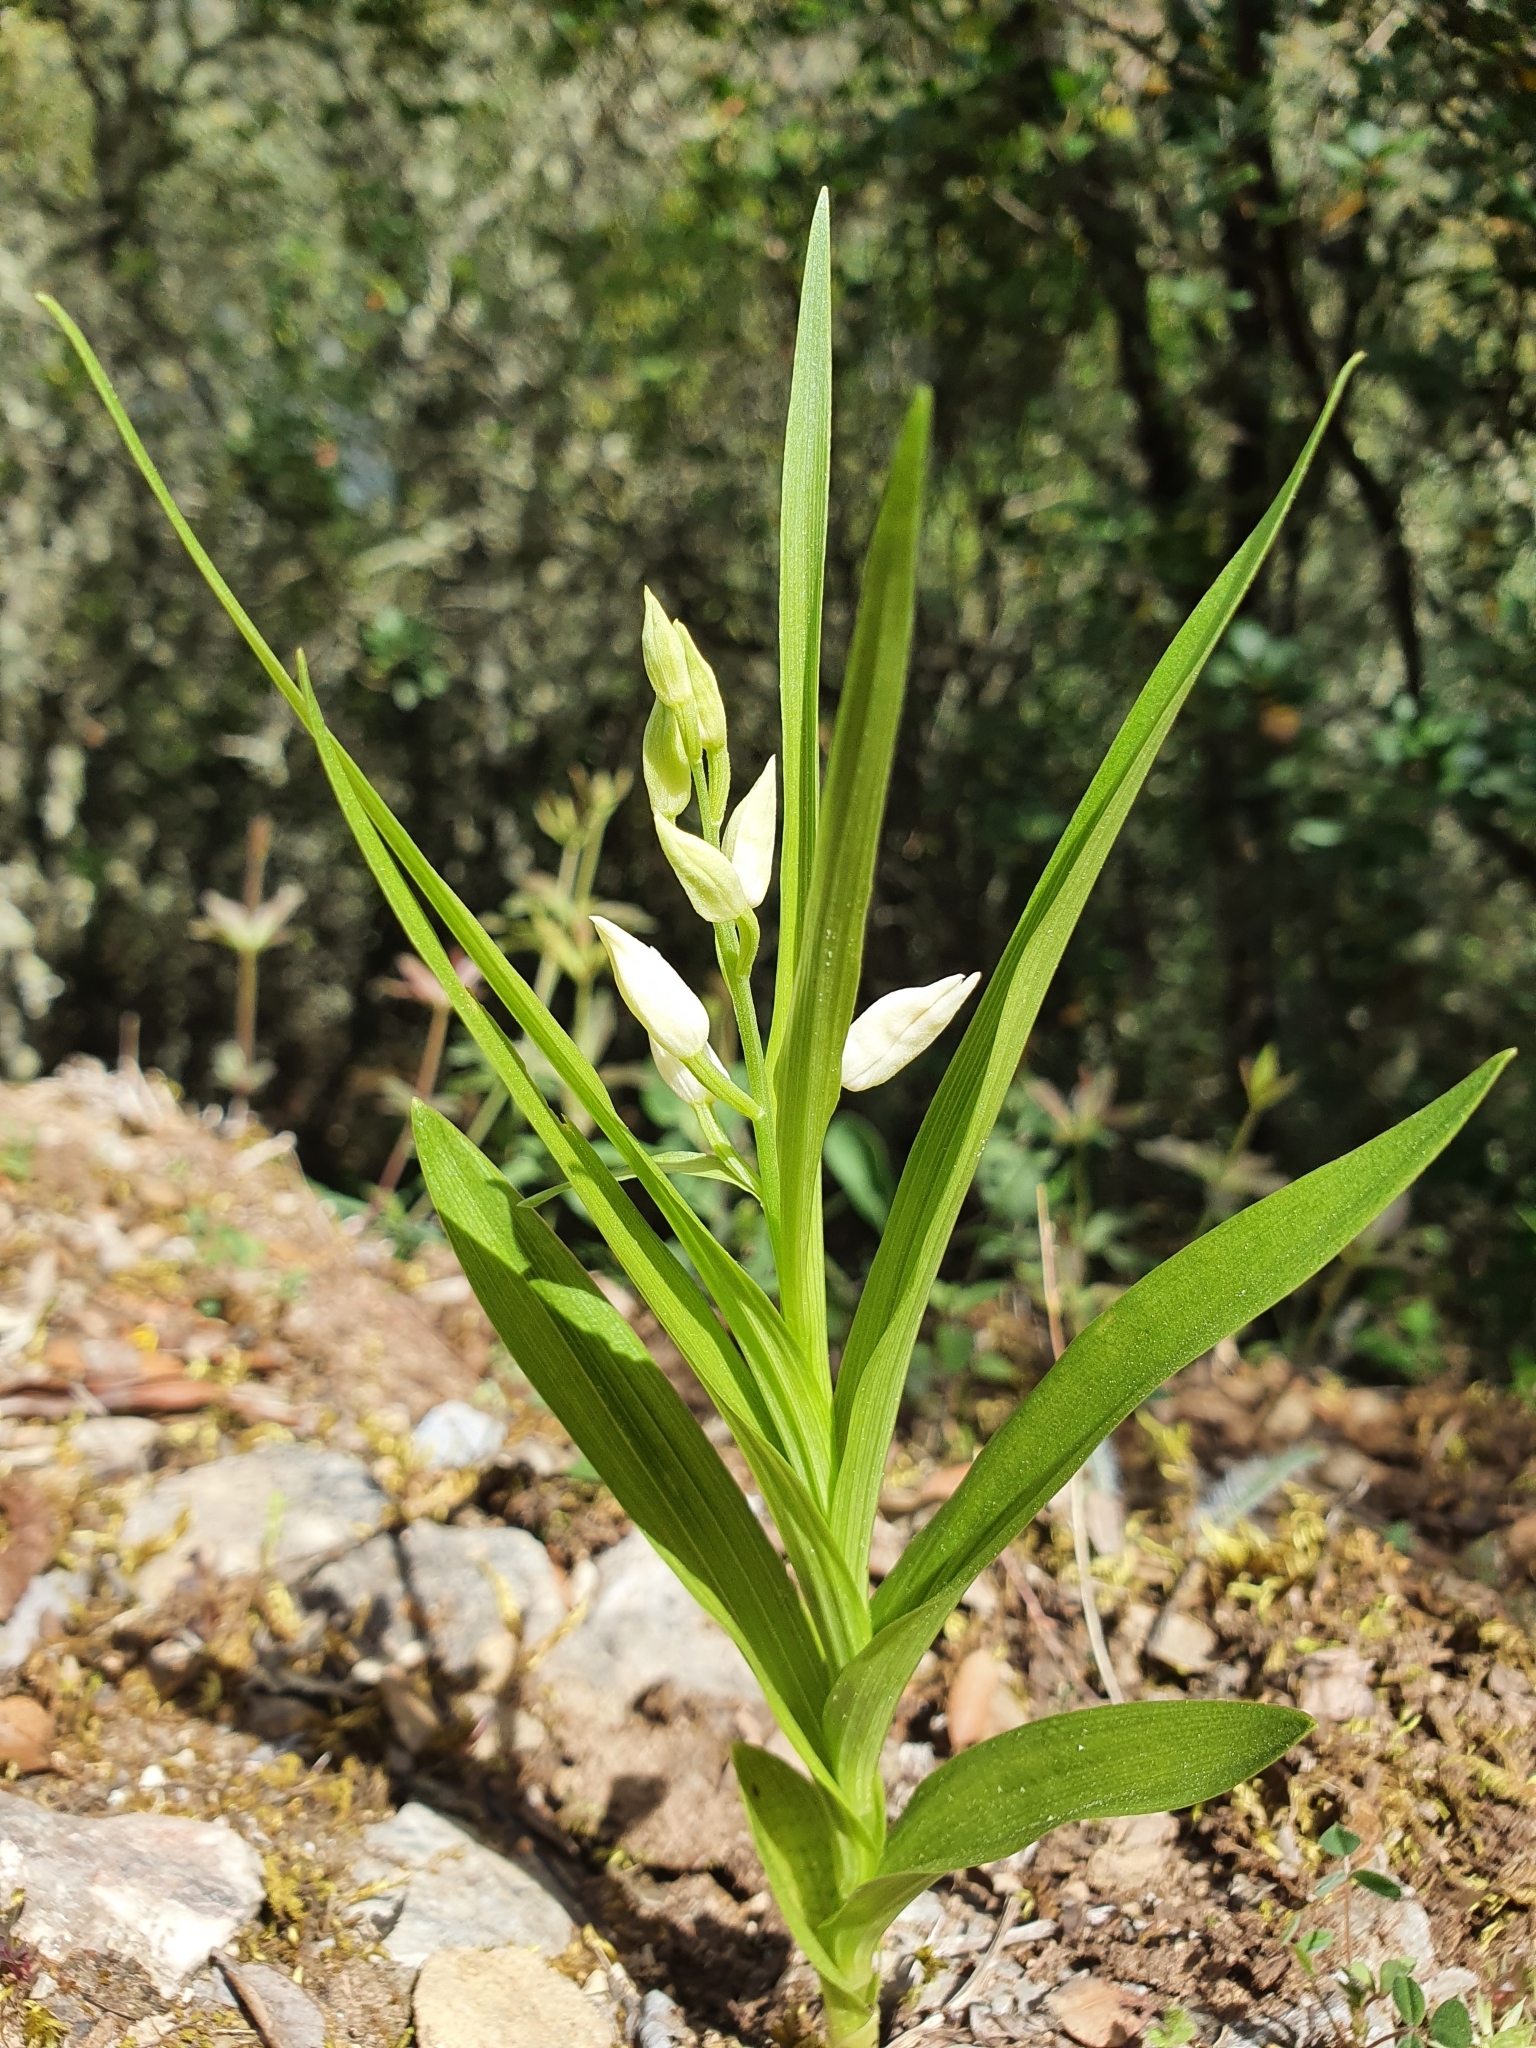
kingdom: Plantae
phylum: Tracheophyta
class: Liliopsida
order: Asparagales
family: Orchidaceae
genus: Cephalanthera
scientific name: Cephalanthera longifolia
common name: Narrow-leaved helleborine
